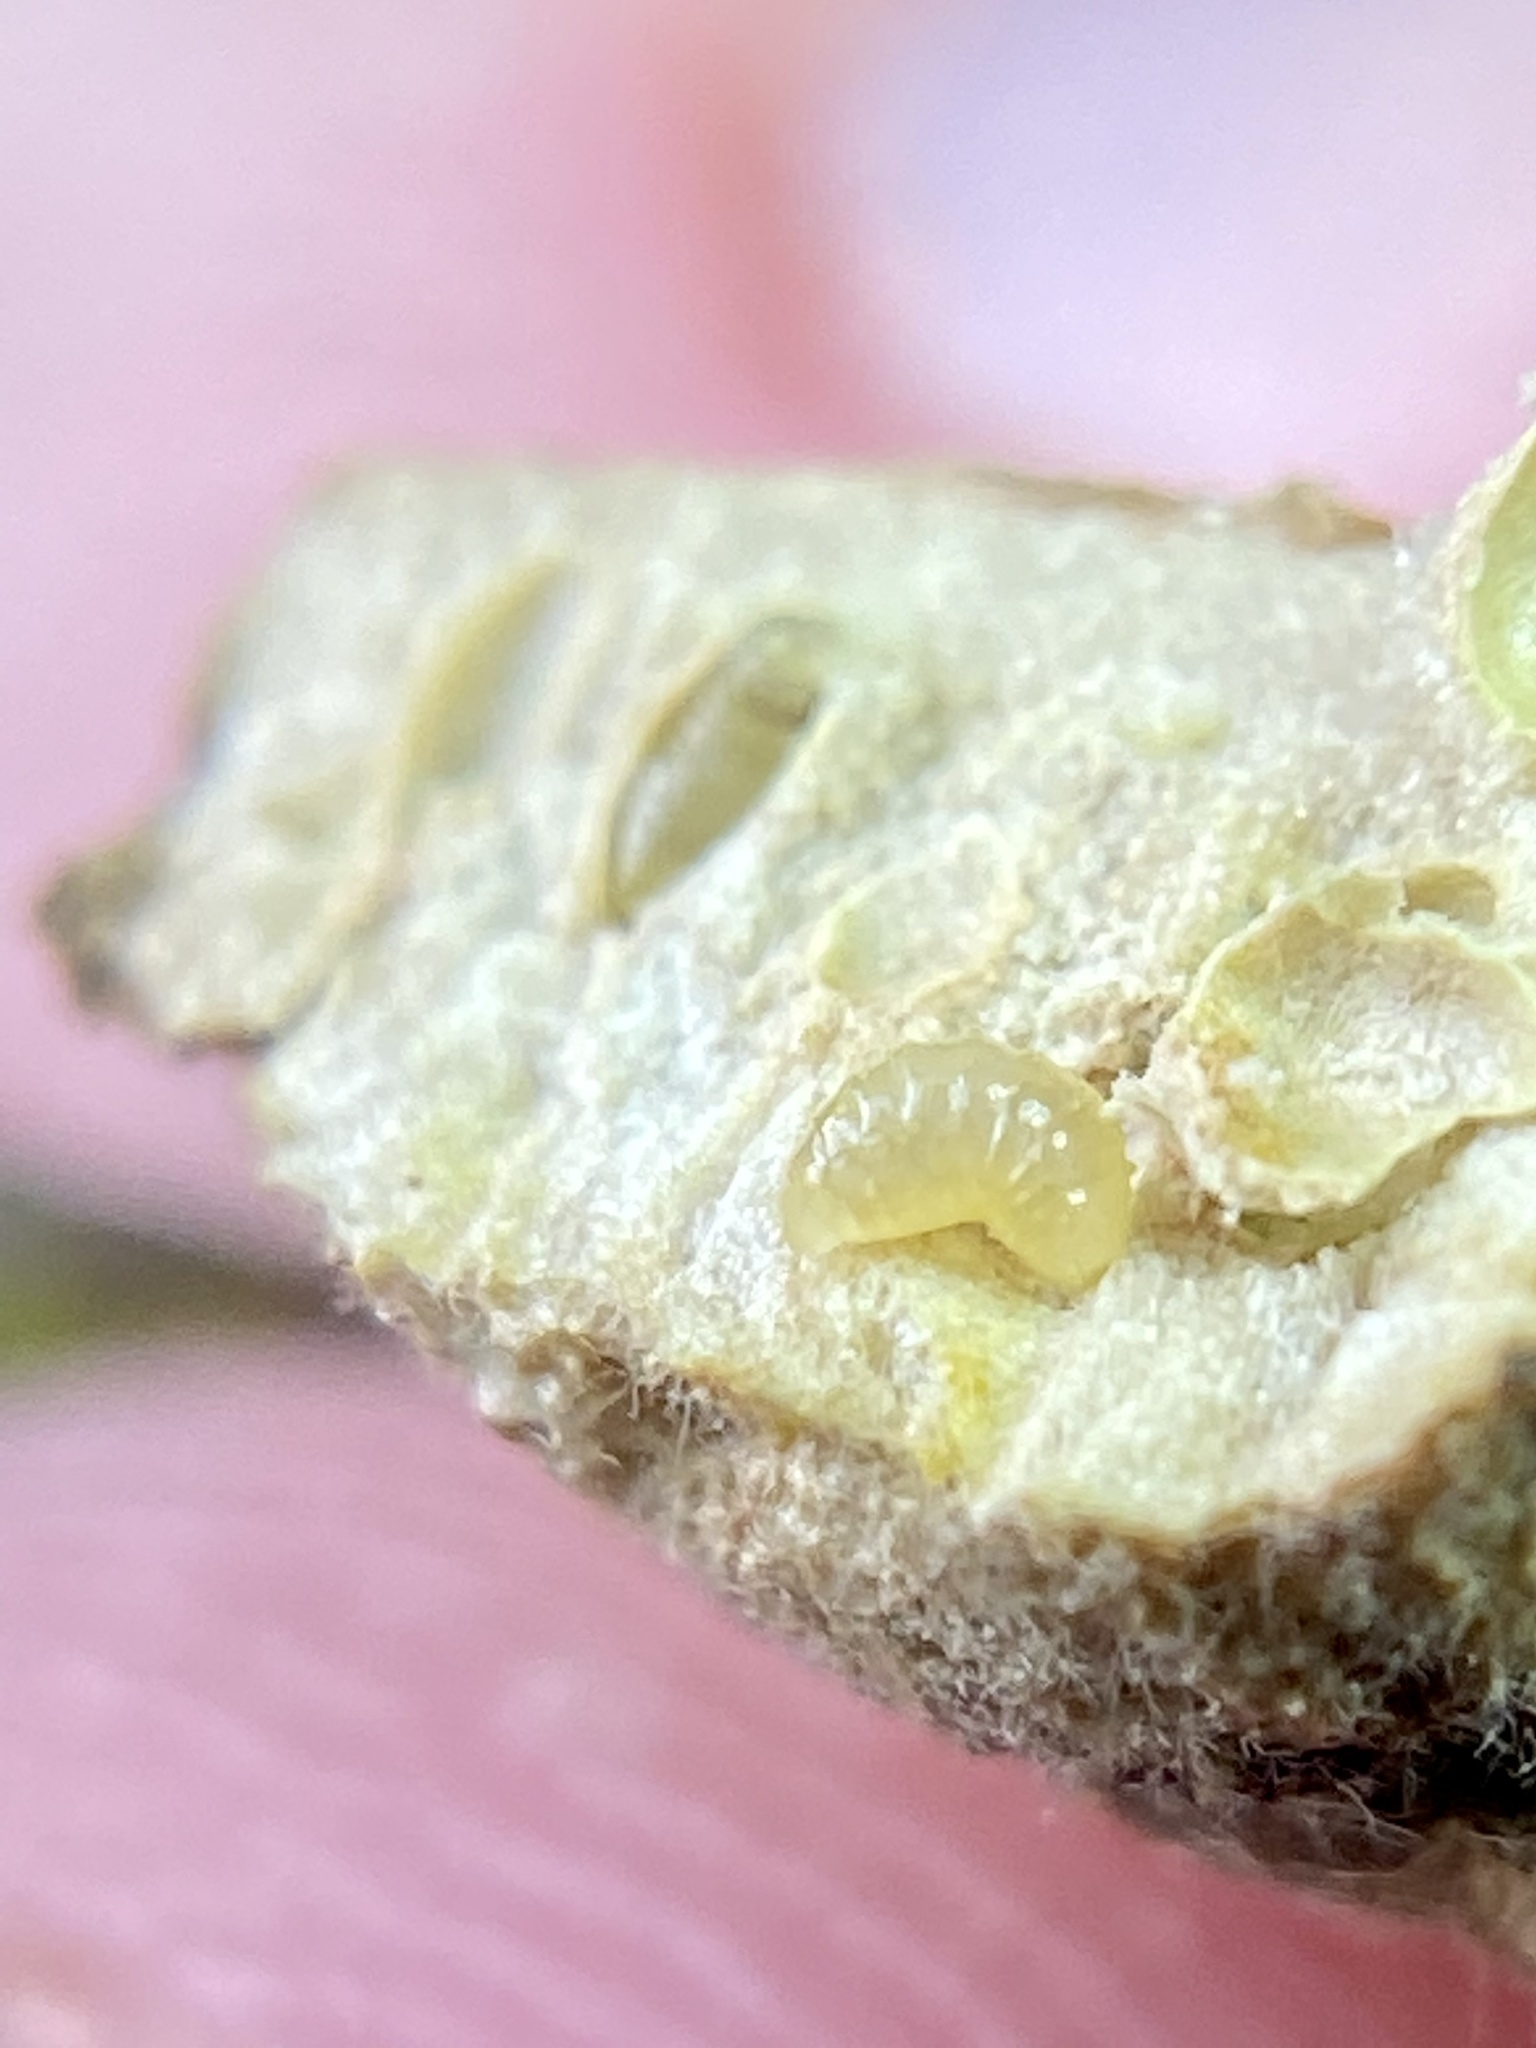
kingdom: Animalia
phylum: Arthropoda
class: Insecta
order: Hymenoptera
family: Cynipidae
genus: Neuroterus
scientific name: Neuroterus quercusirregularis
